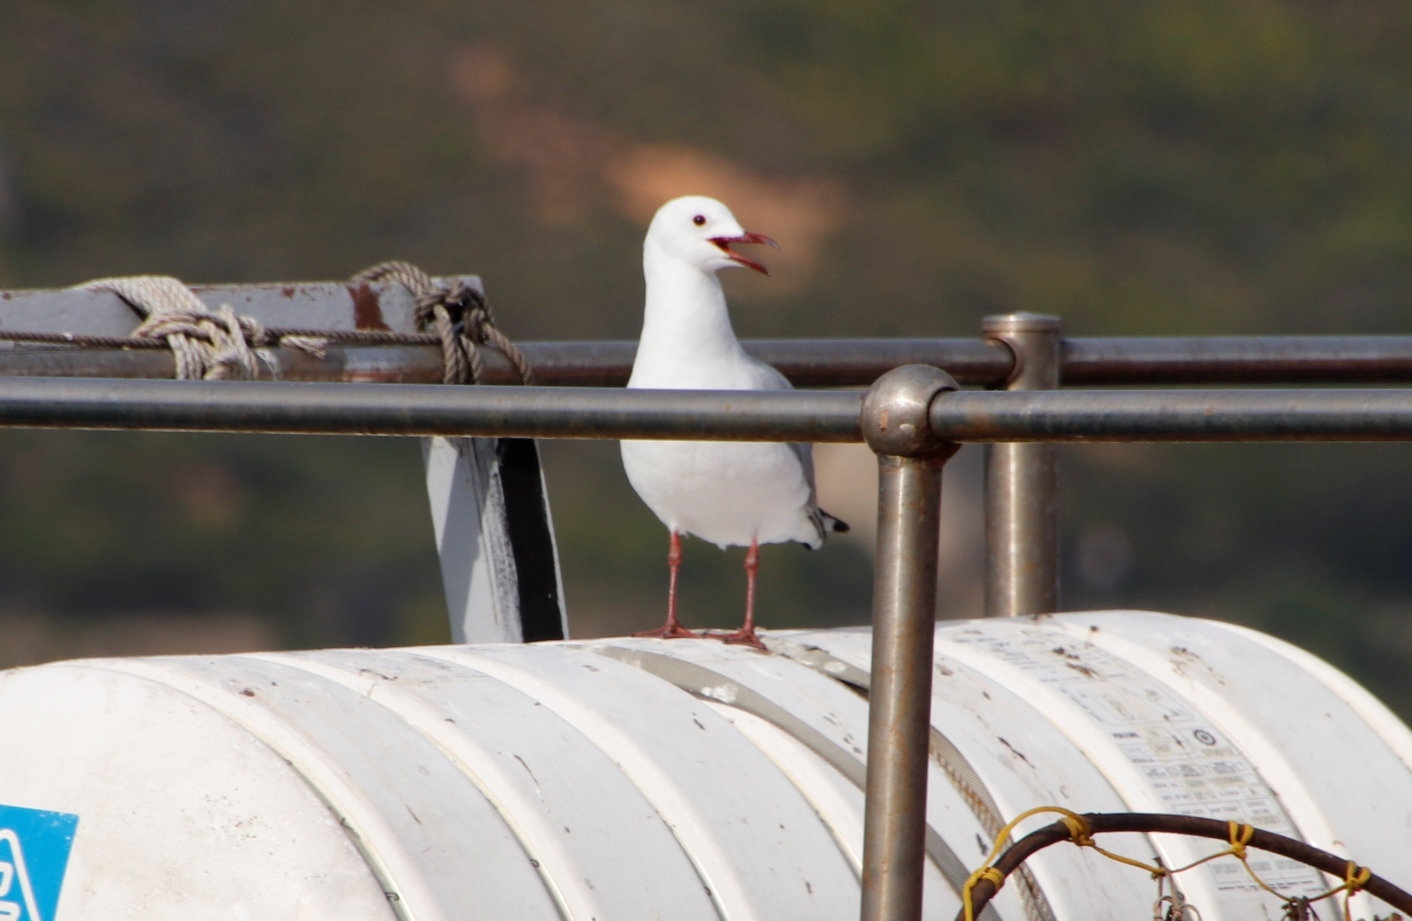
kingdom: Animalia
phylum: Chordata
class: Aves
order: Charadriiformes
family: Laridae
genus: Chroicocephalus
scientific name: Chroicocephalus hartlaubii
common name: Hartlaub's gull
